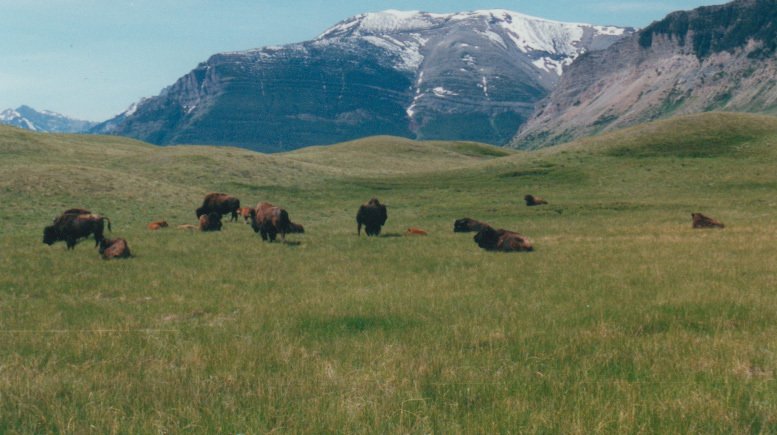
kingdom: Animalia
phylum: Chordata
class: Mammalia
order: Artiodactyla
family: Bovidae
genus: Bison
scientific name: Bison bison
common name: American bison
